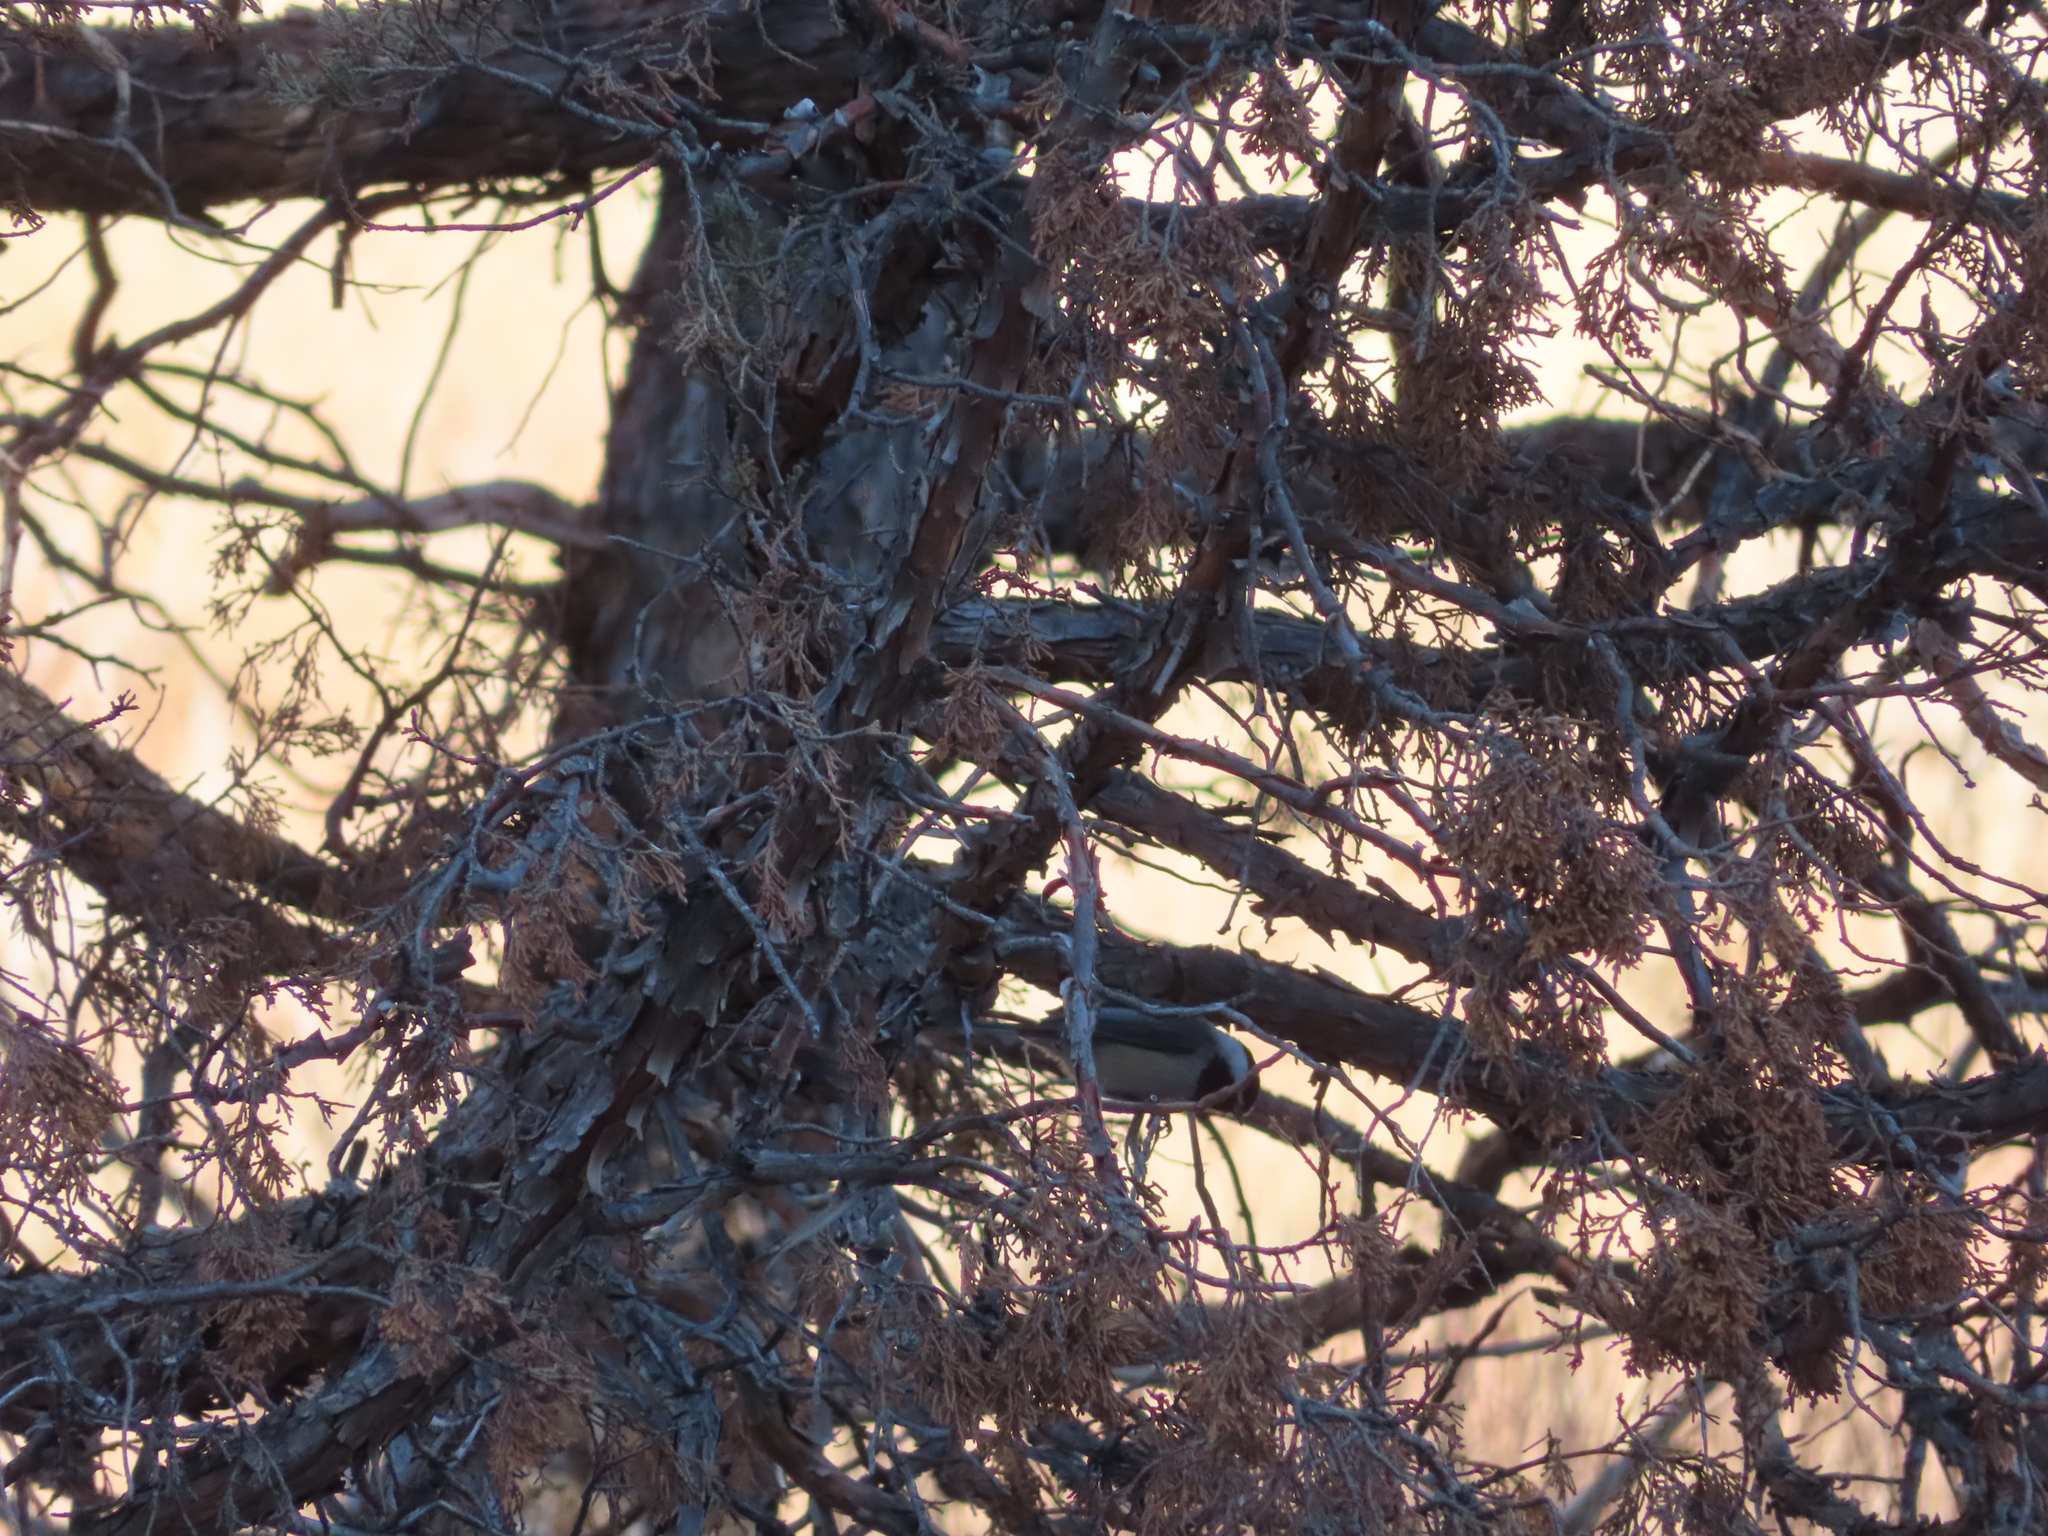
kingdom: Animalia
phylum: Chordata
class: Aves
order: Passeriformes
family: Paridae
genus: Poecile
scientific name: Poecile atricapillus
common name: Black-capped chickadee
